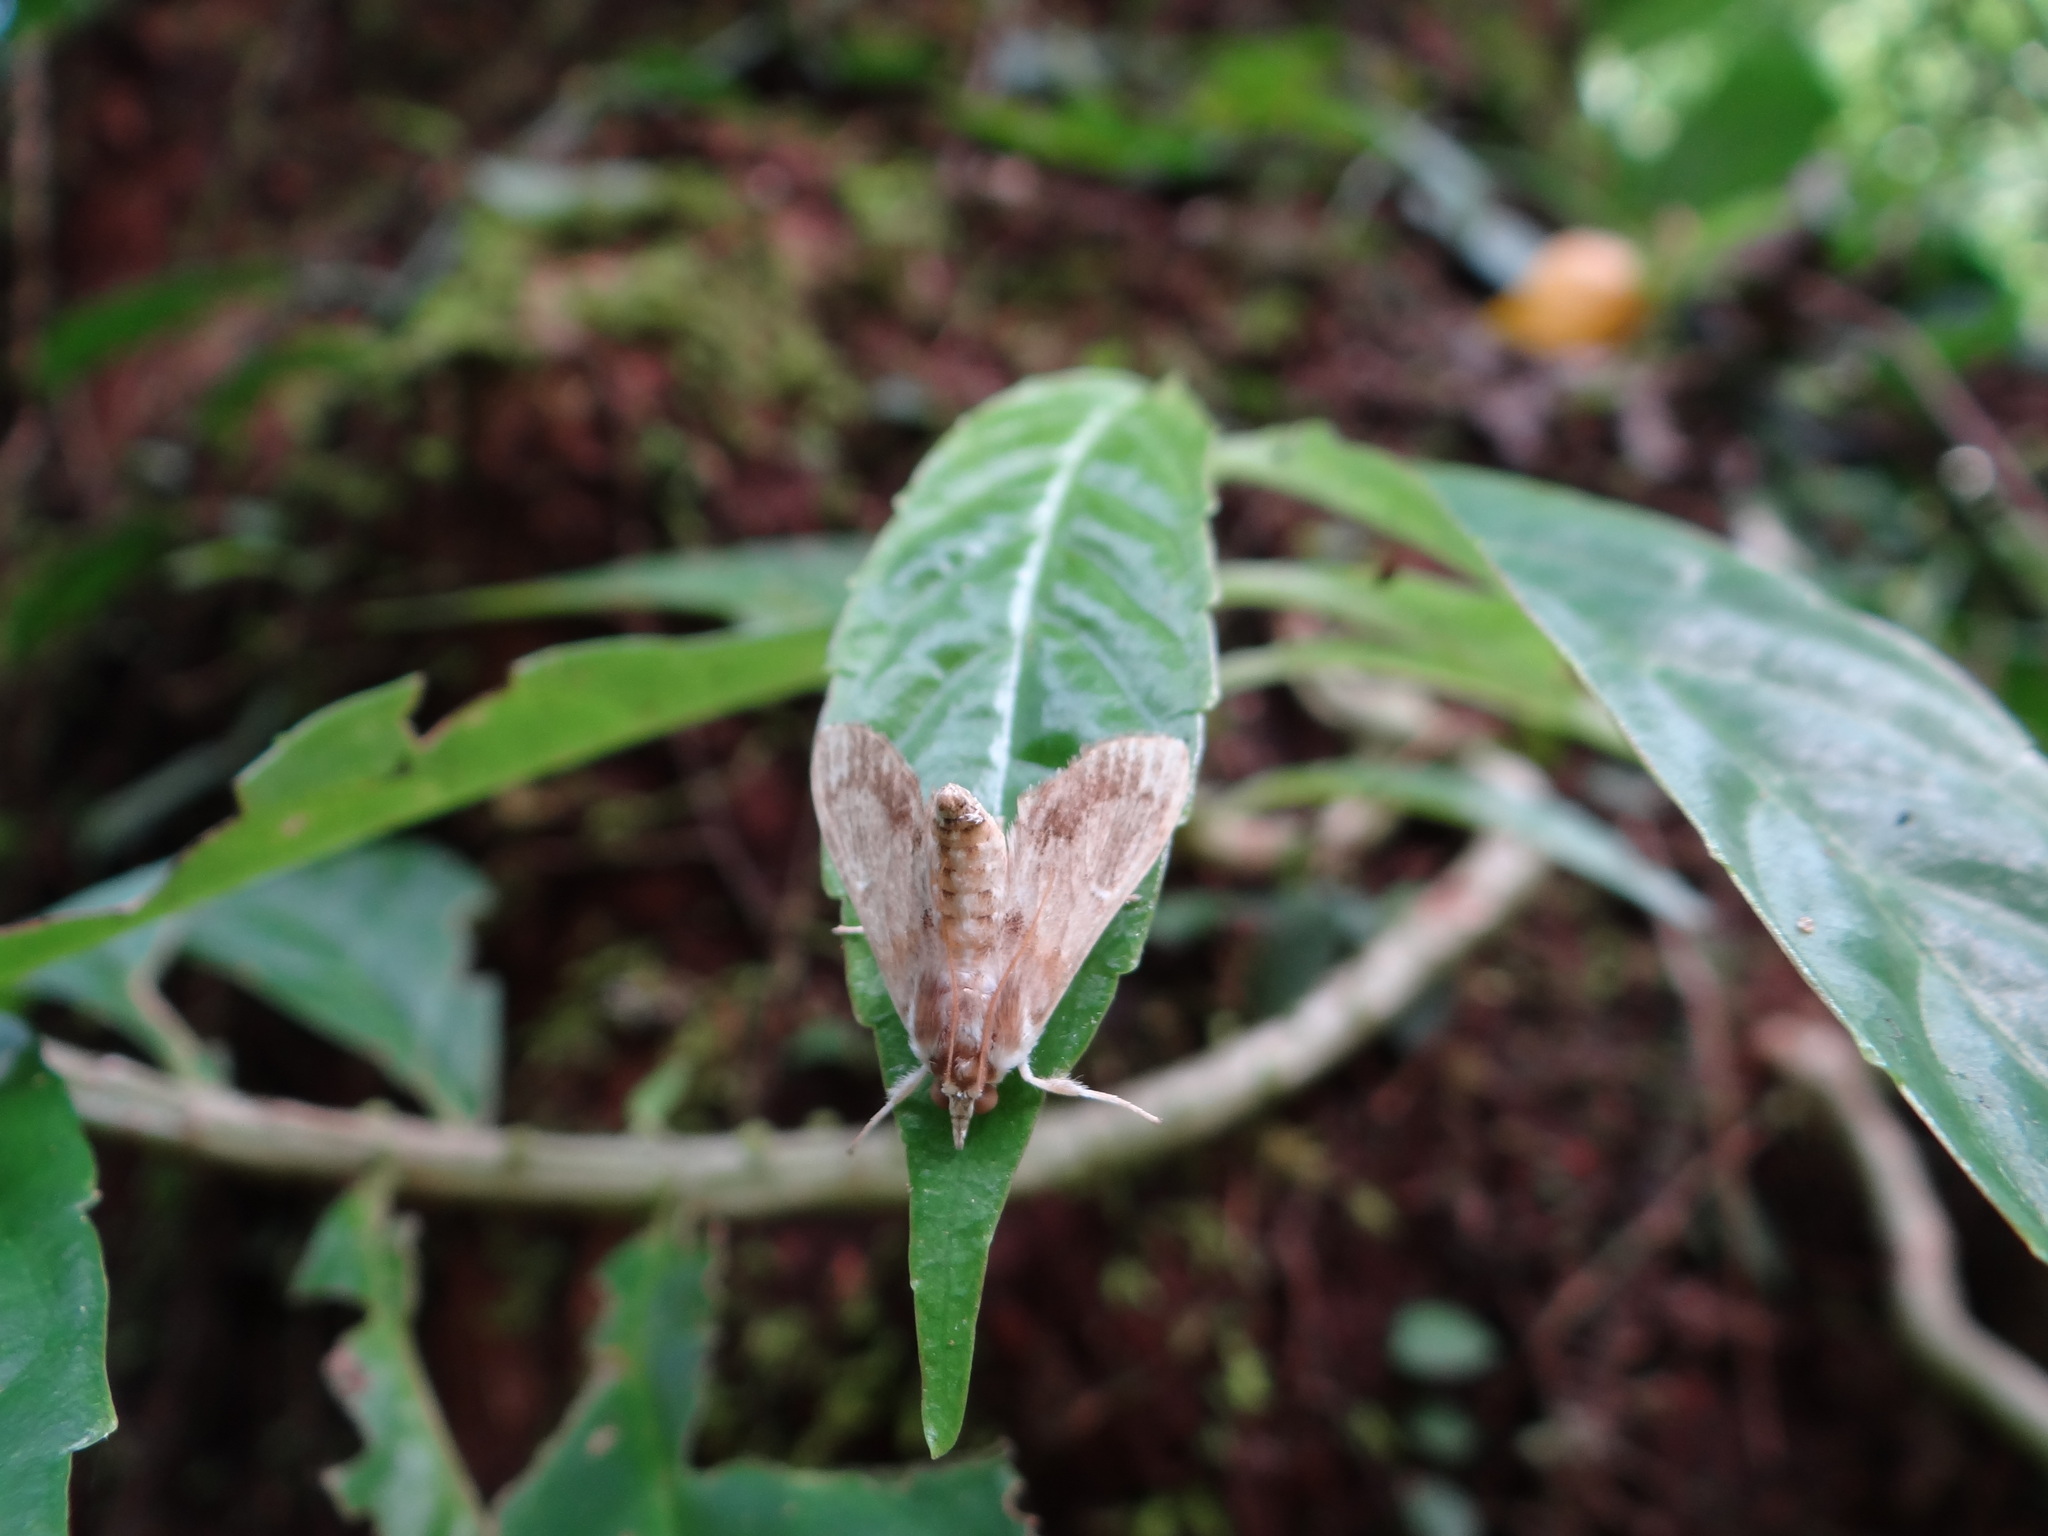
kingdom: Animalia
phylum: Arthropoda
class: Insecta
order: Lepidoptera
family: Crambidae
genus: Cirrhochrista
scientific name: Cirrhochrista spissalis
